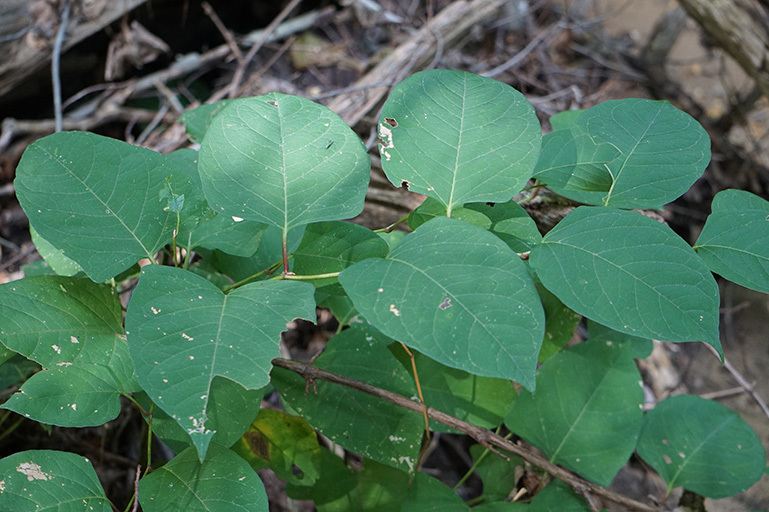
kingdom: Plantae
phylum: Tracheophyta
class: Magnoliopsida
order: Caryophyllales
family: Polygonaceae
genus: Reynoutria
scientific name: Reynoutria japonica
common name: Japanese knotweed
